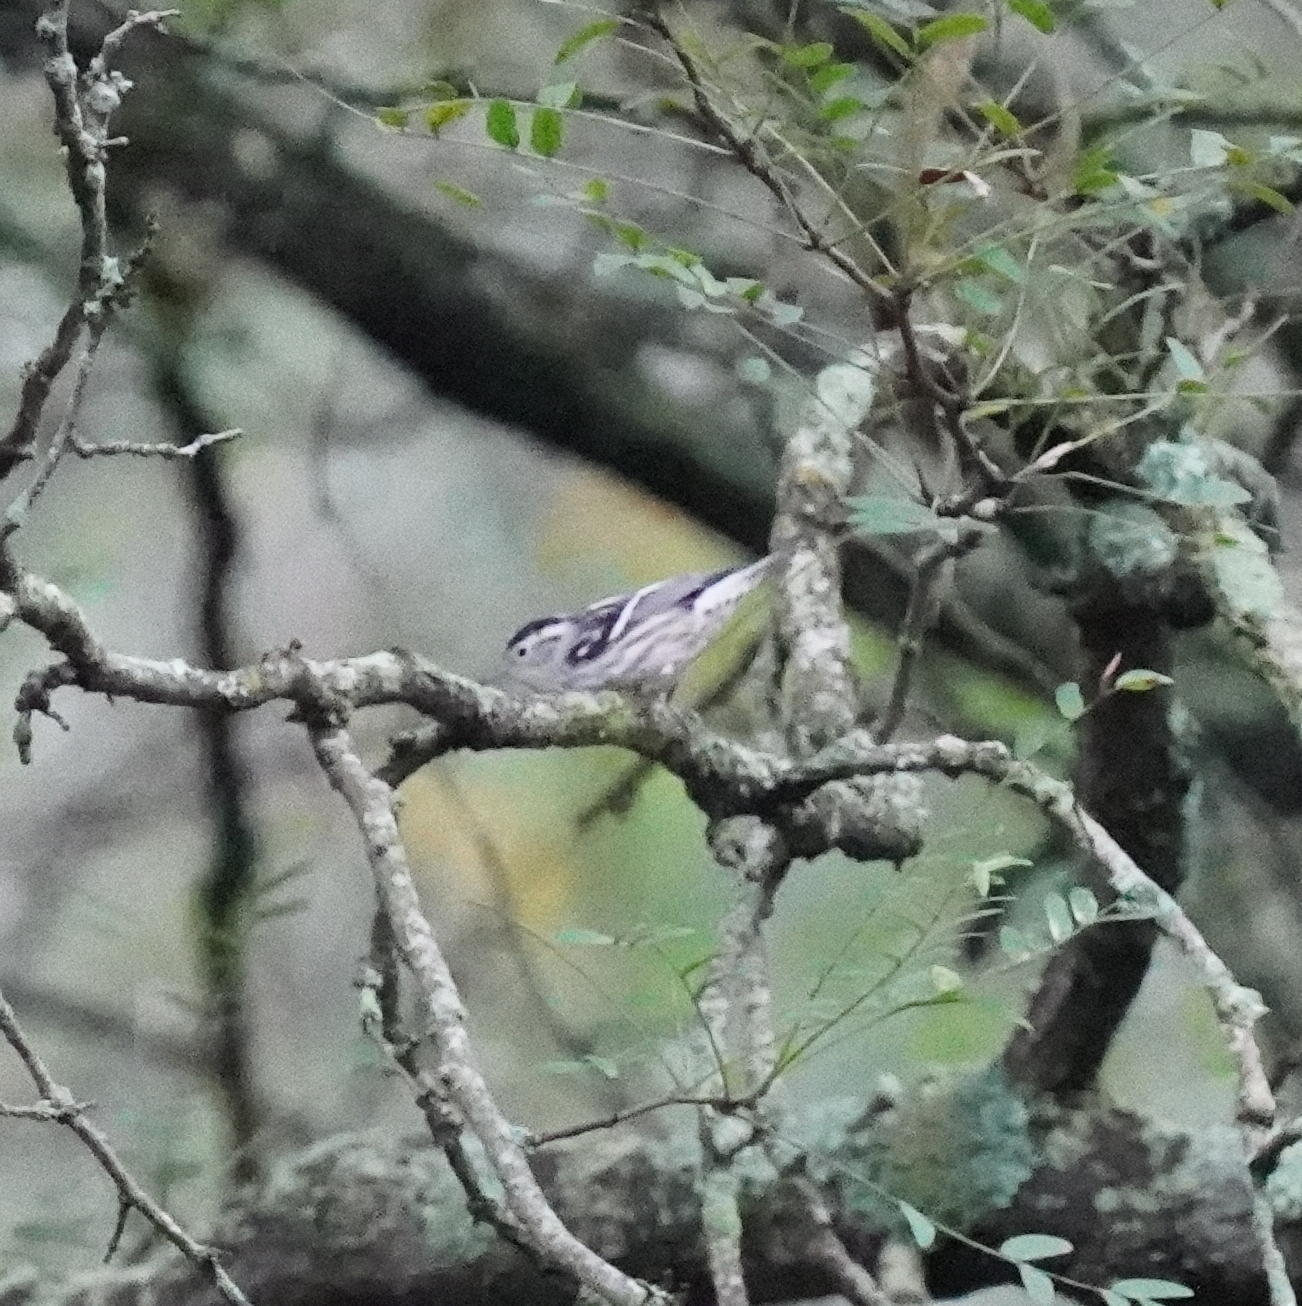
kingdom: Animalia
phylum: Chordata
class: Aves
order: Passeriformes
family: Parulidae
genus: Mniotilta
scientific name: Mniotilta varia
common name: Black-and-white warbler
